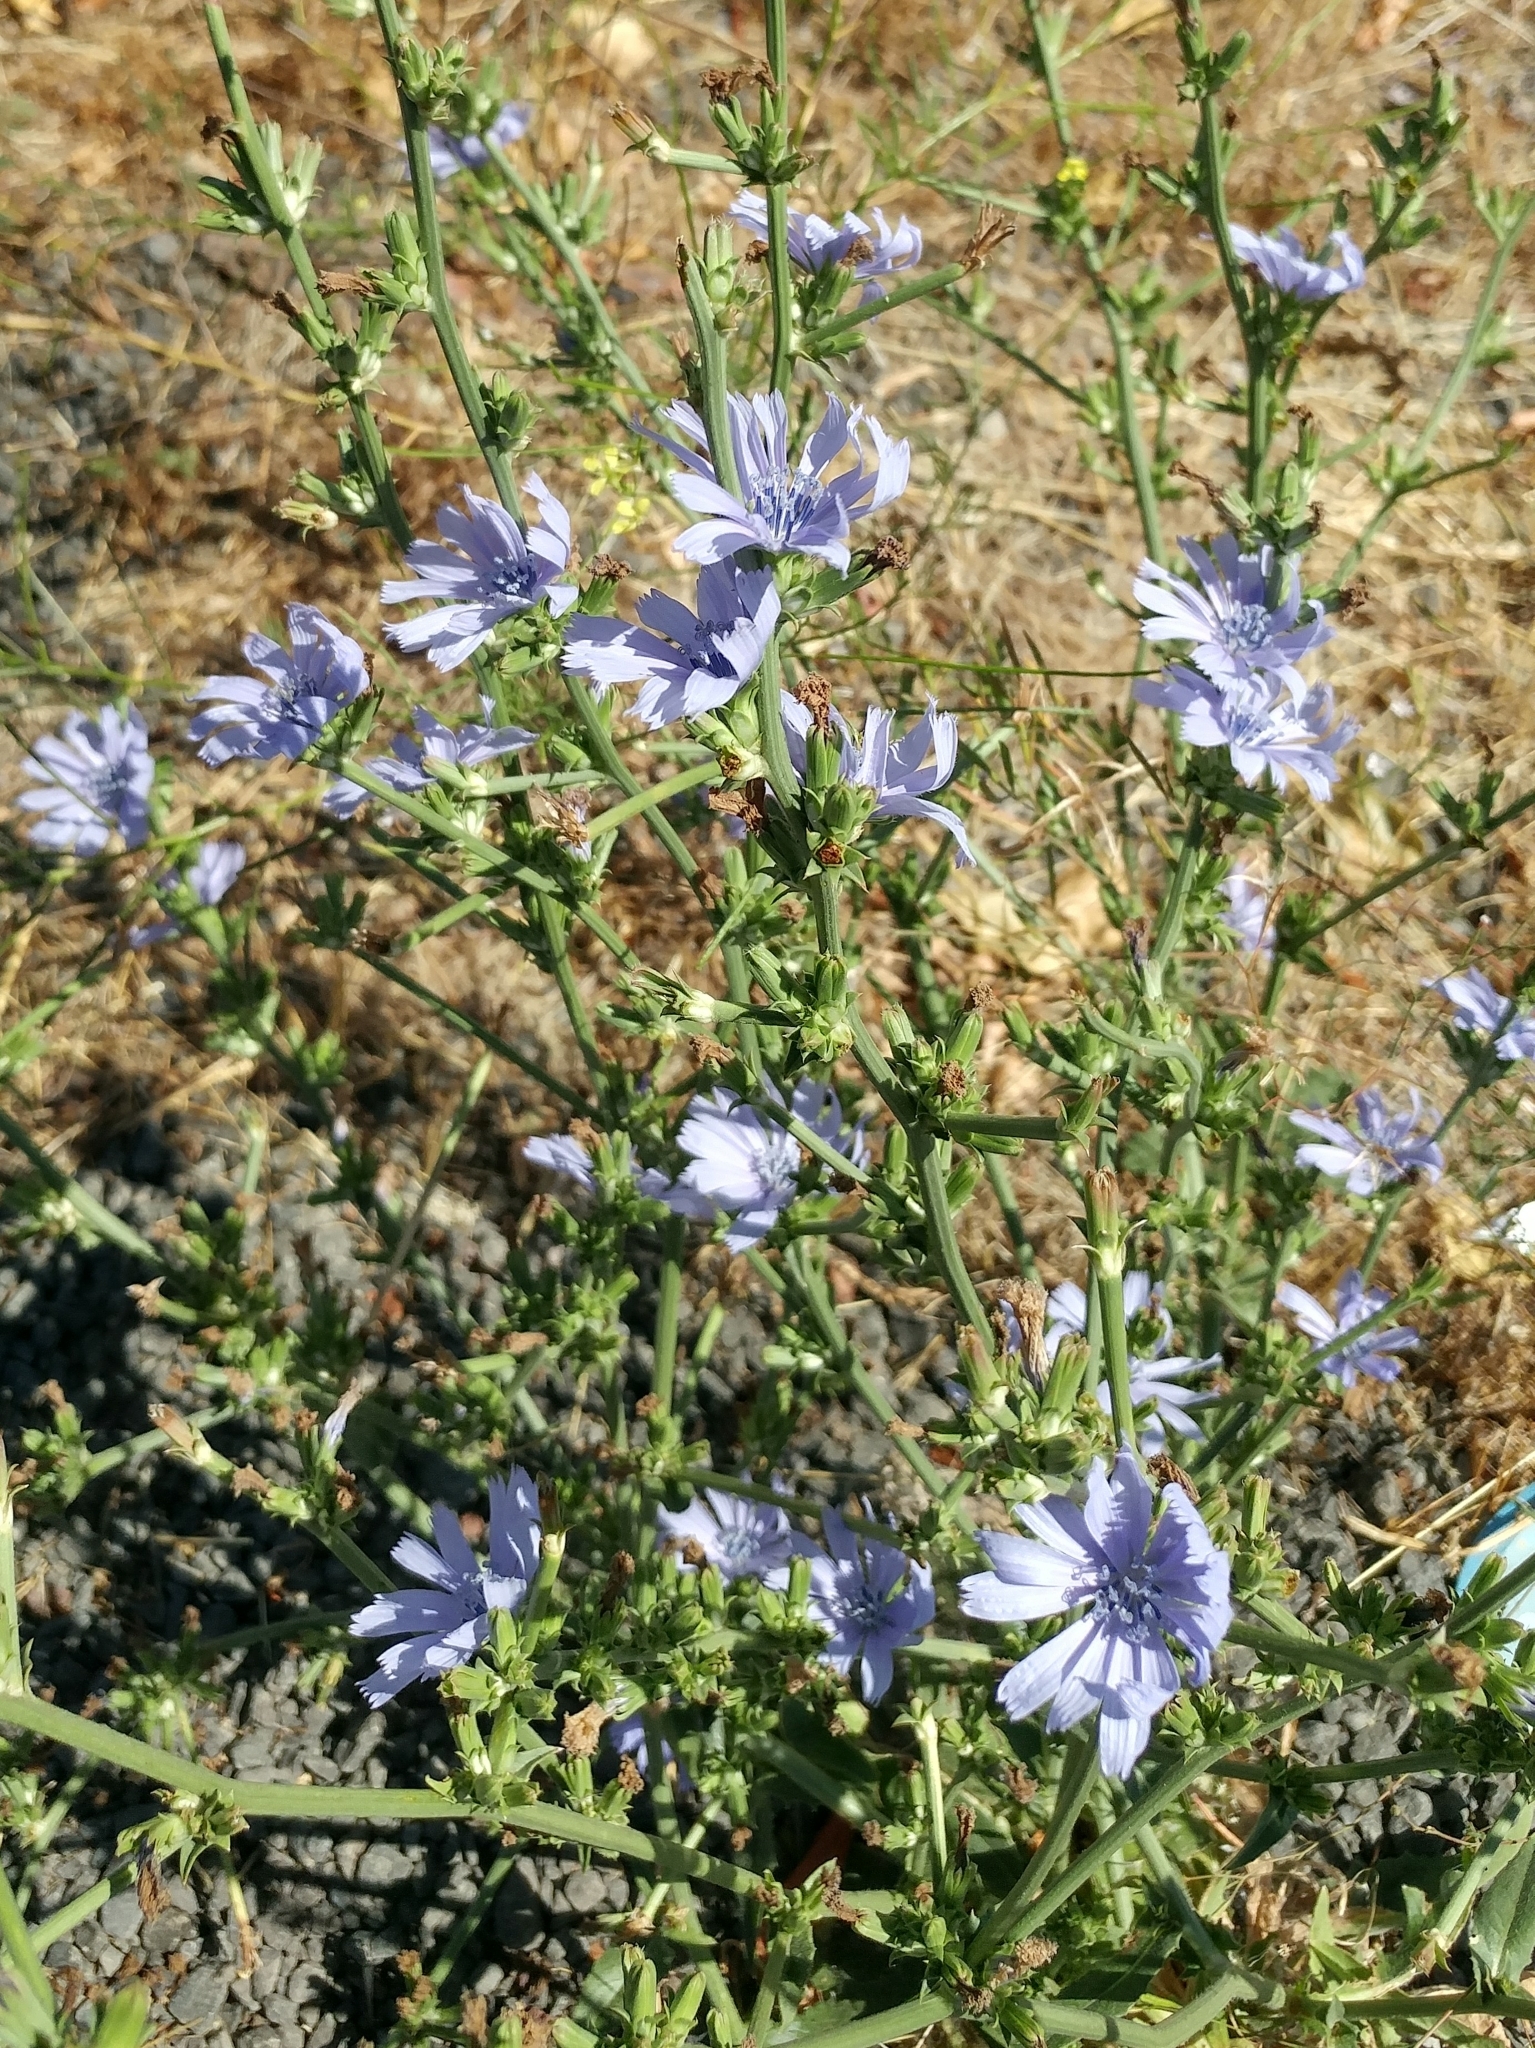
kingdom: Plantae
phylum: Tracheophyta
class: Magnoliopsida
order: Asterales
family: Asteraceae
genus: Cichorium
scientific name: Cichorium intybus
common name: Chicory
